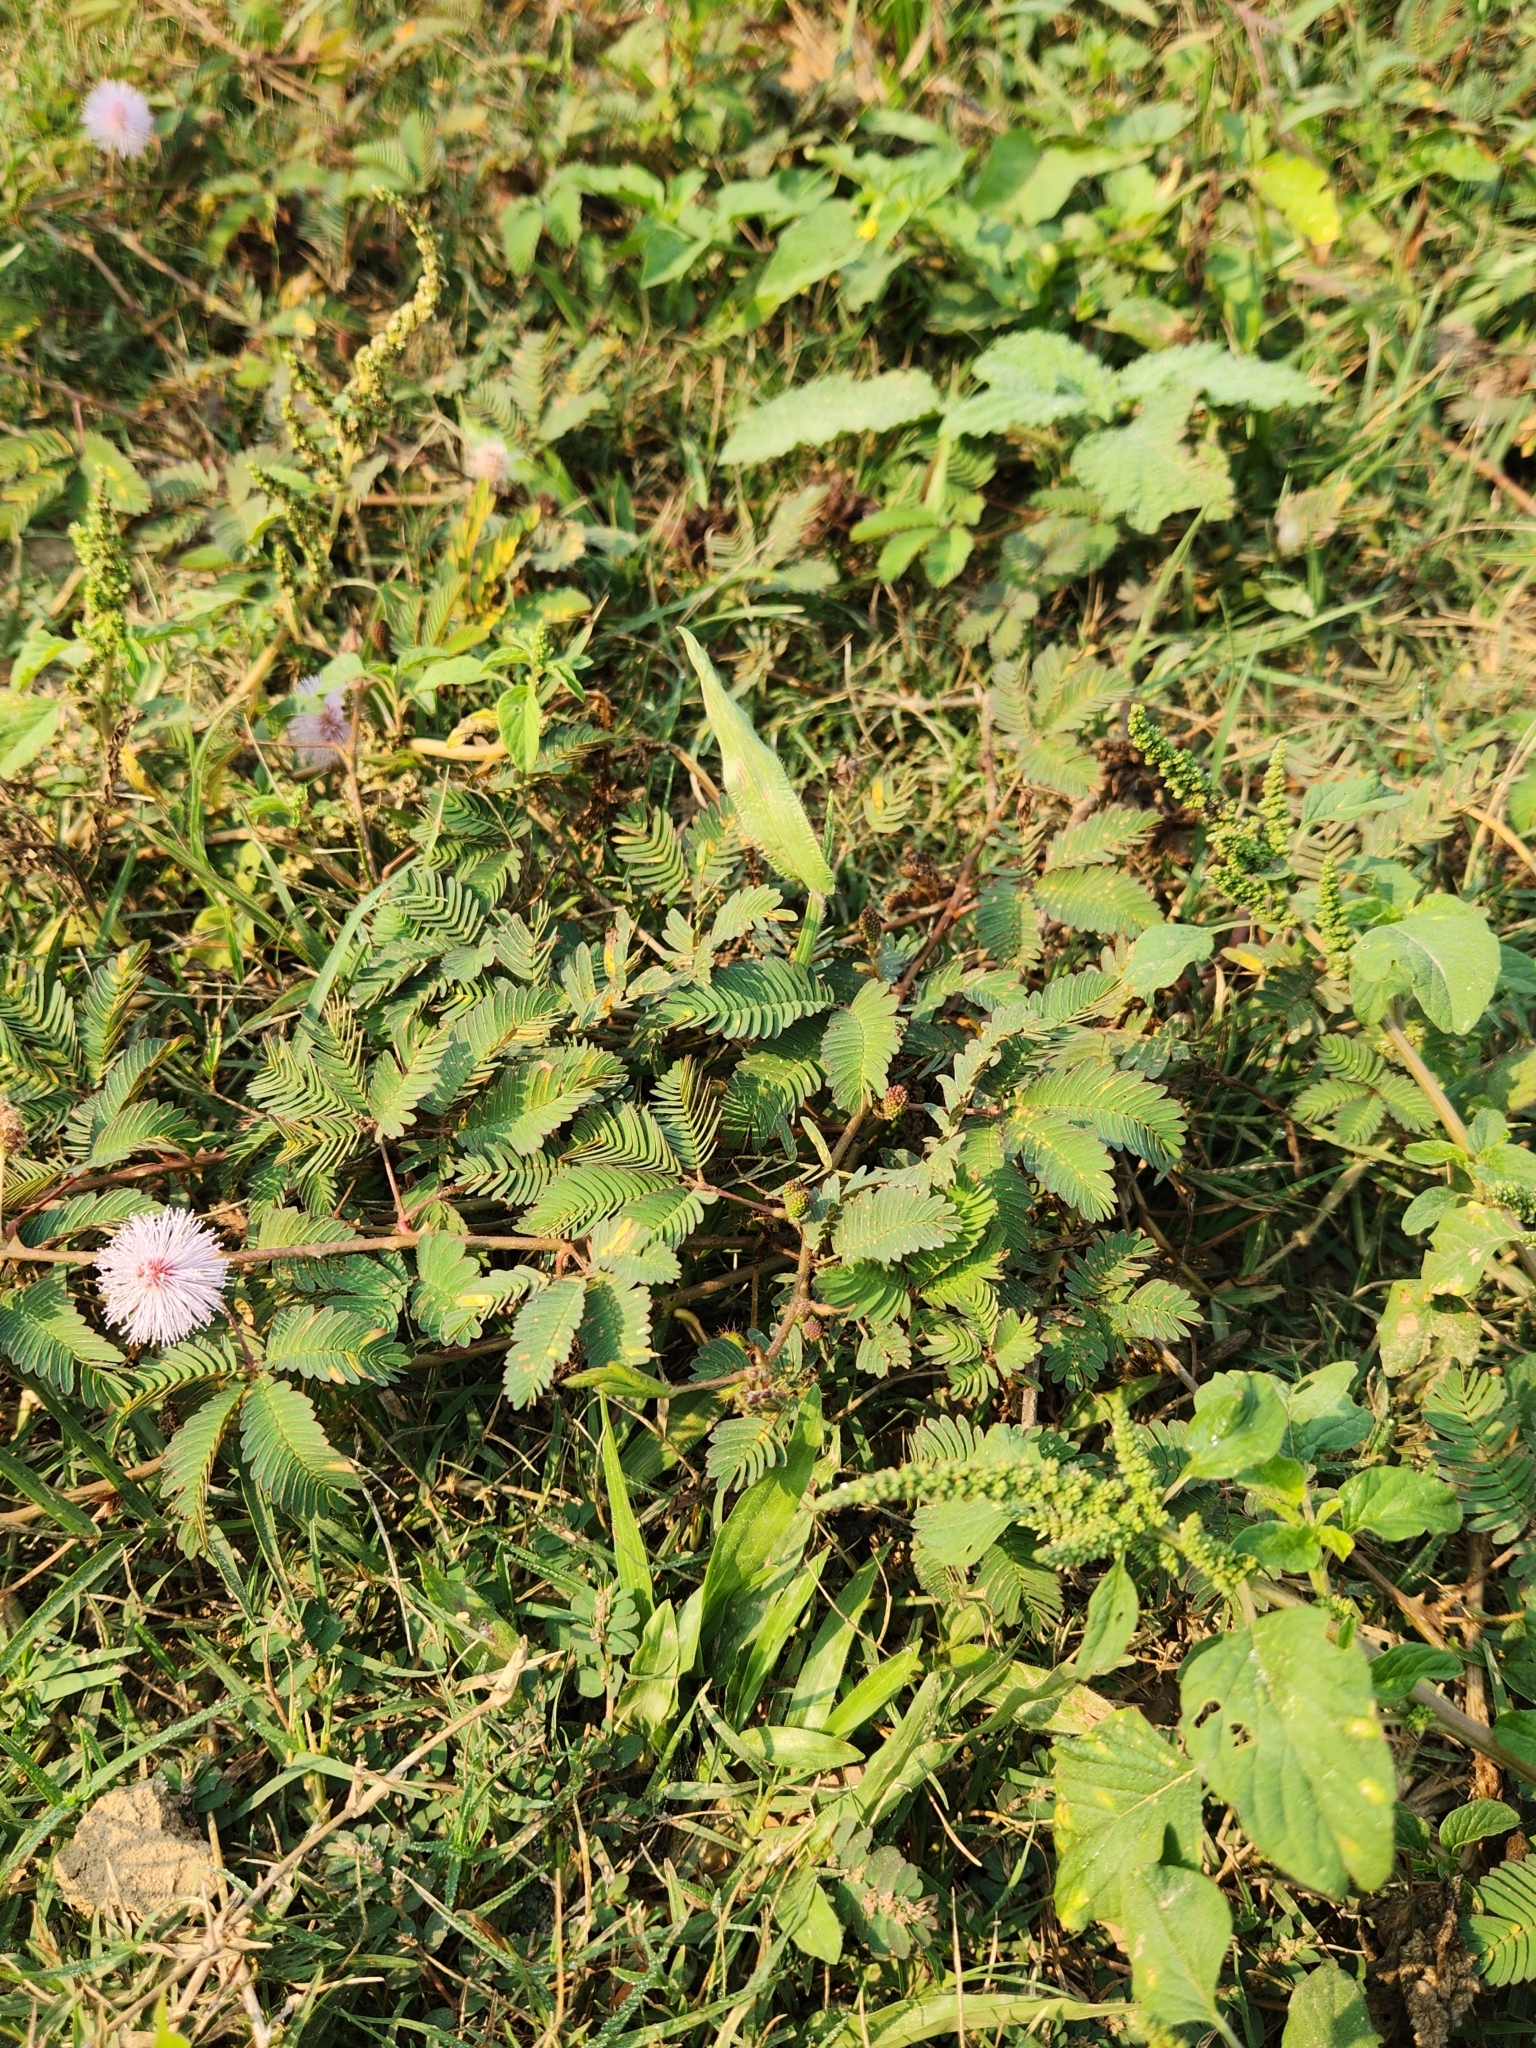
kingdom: Plantae
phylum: Tracheophyta
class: Magnoliopsida
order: Fabales
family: Fabaceae
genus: Mimosa
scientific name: Mimosa pudica
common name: Sensitive plant
